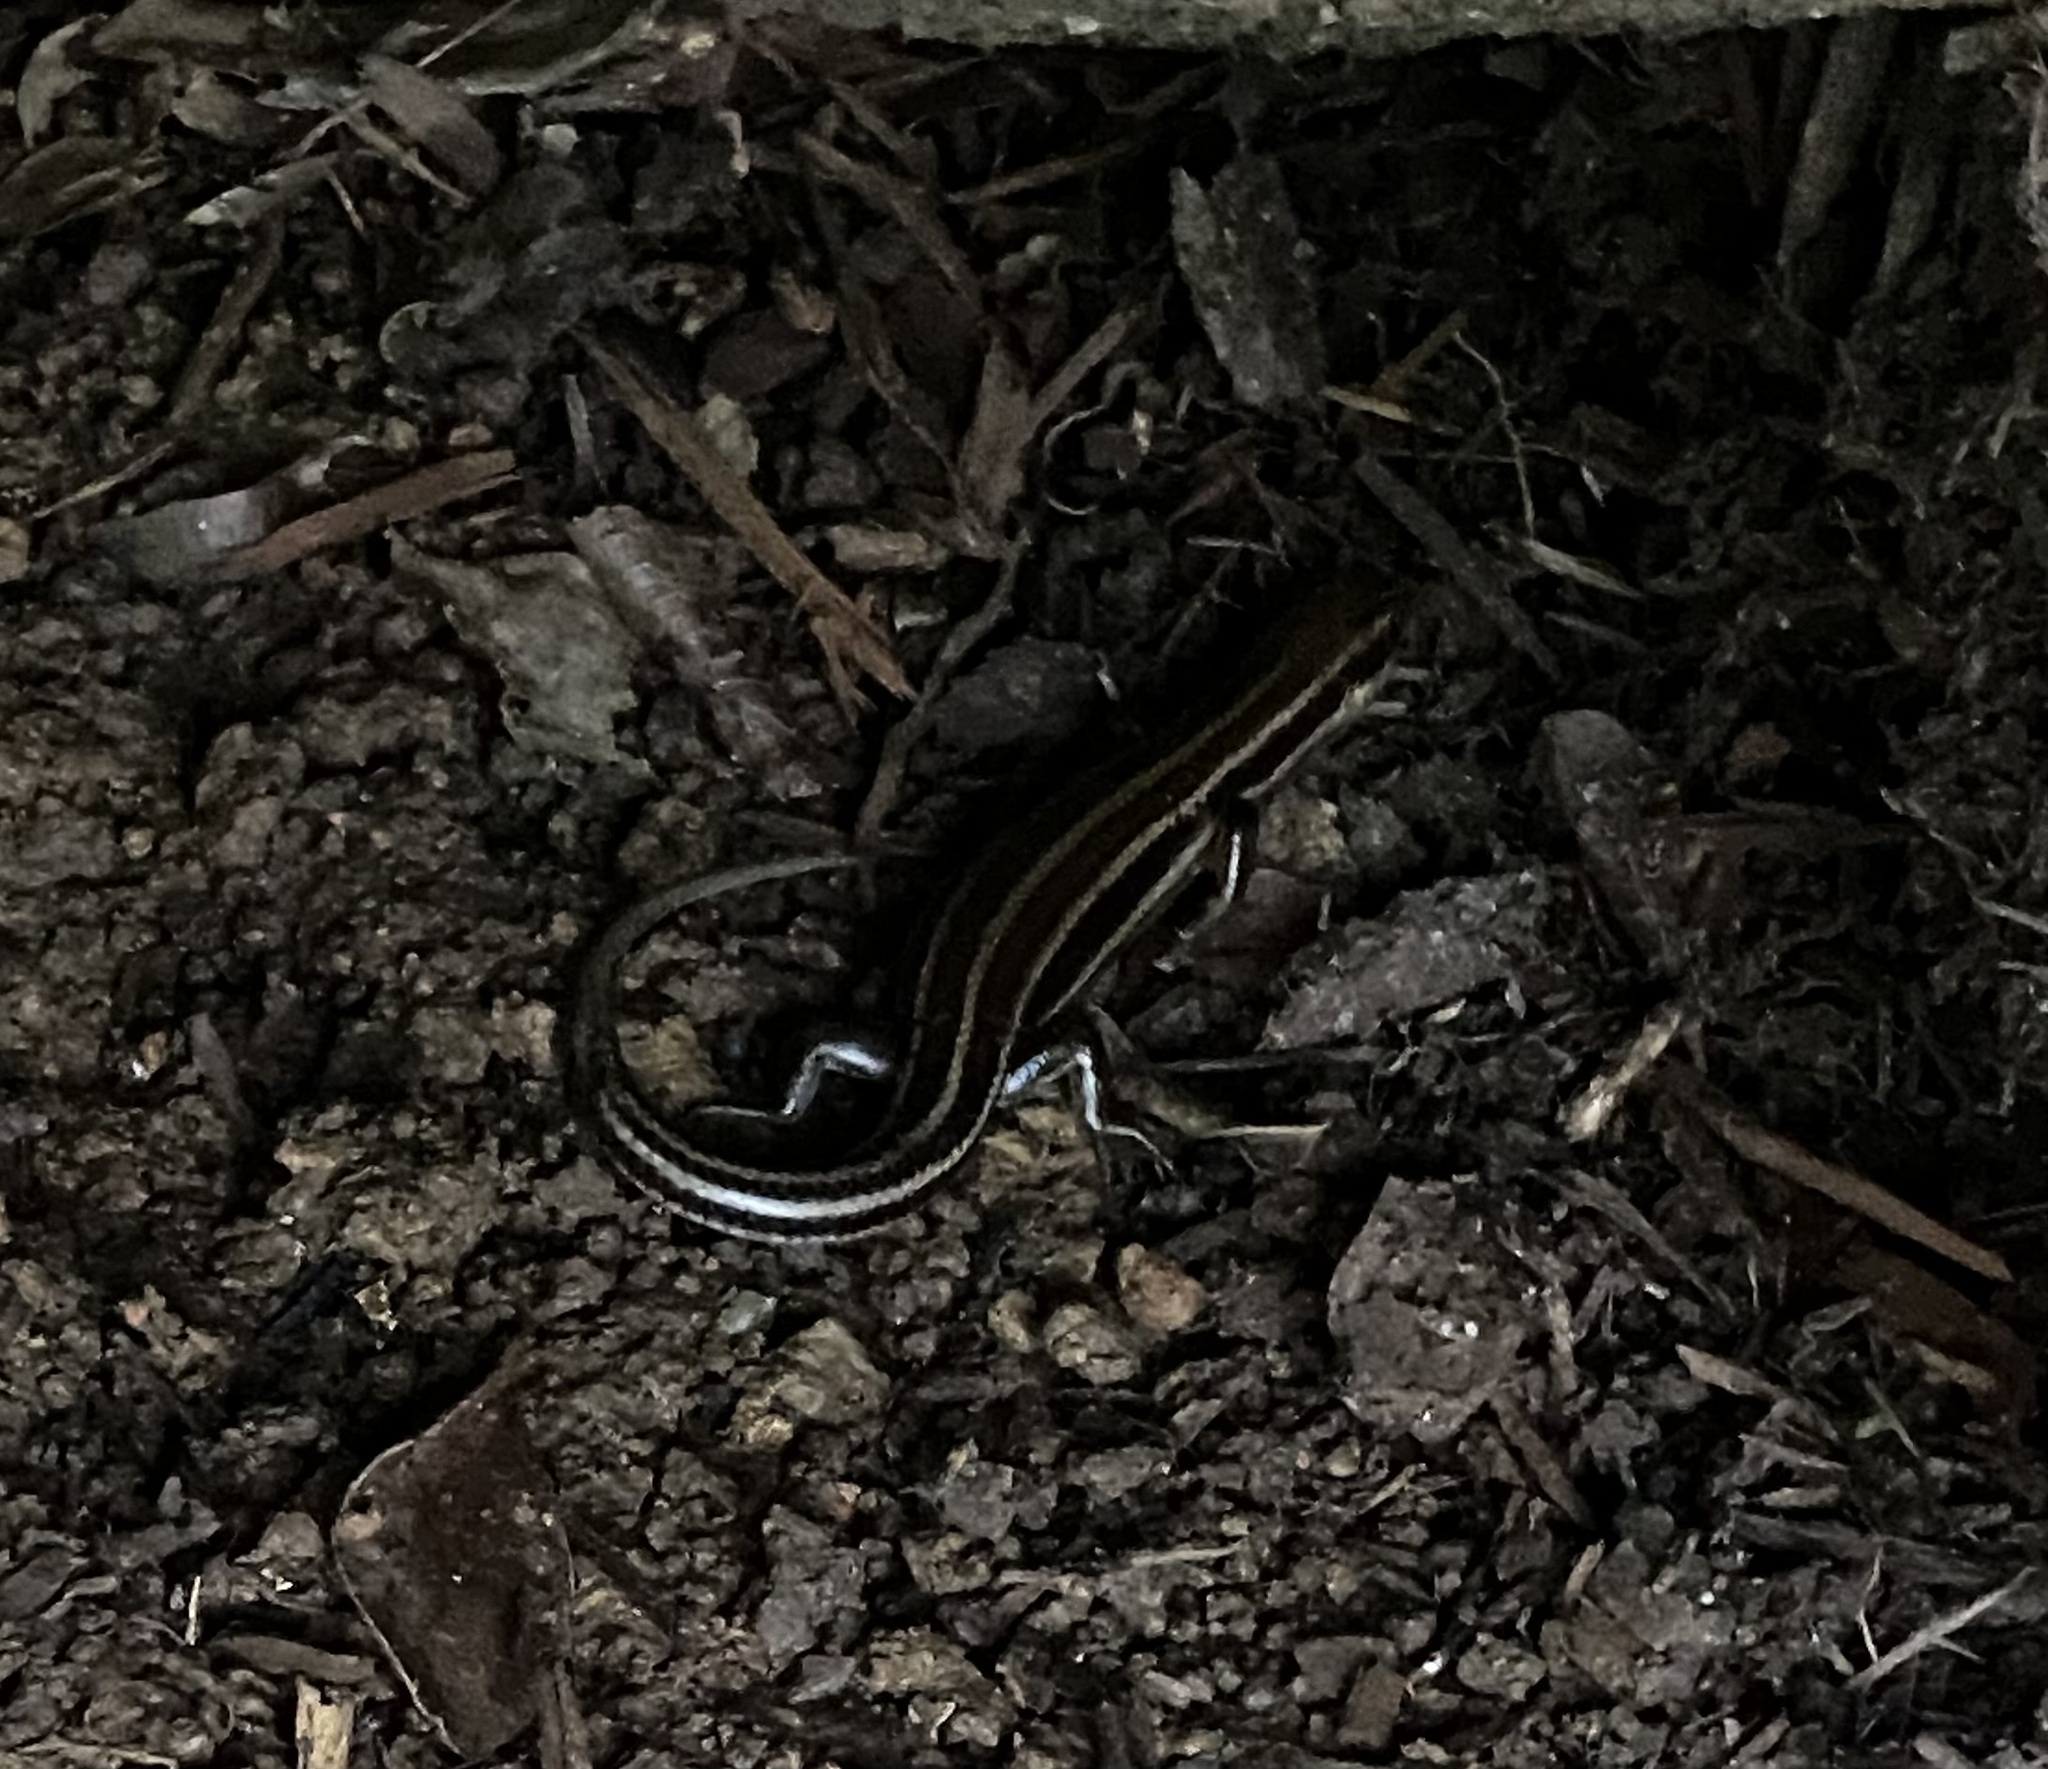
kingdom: Animalia
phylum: Chordata
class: Squamata
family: Scincidae
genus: Plestiodon
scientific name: Plestiodon fasciatus
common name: Five-lined skink
